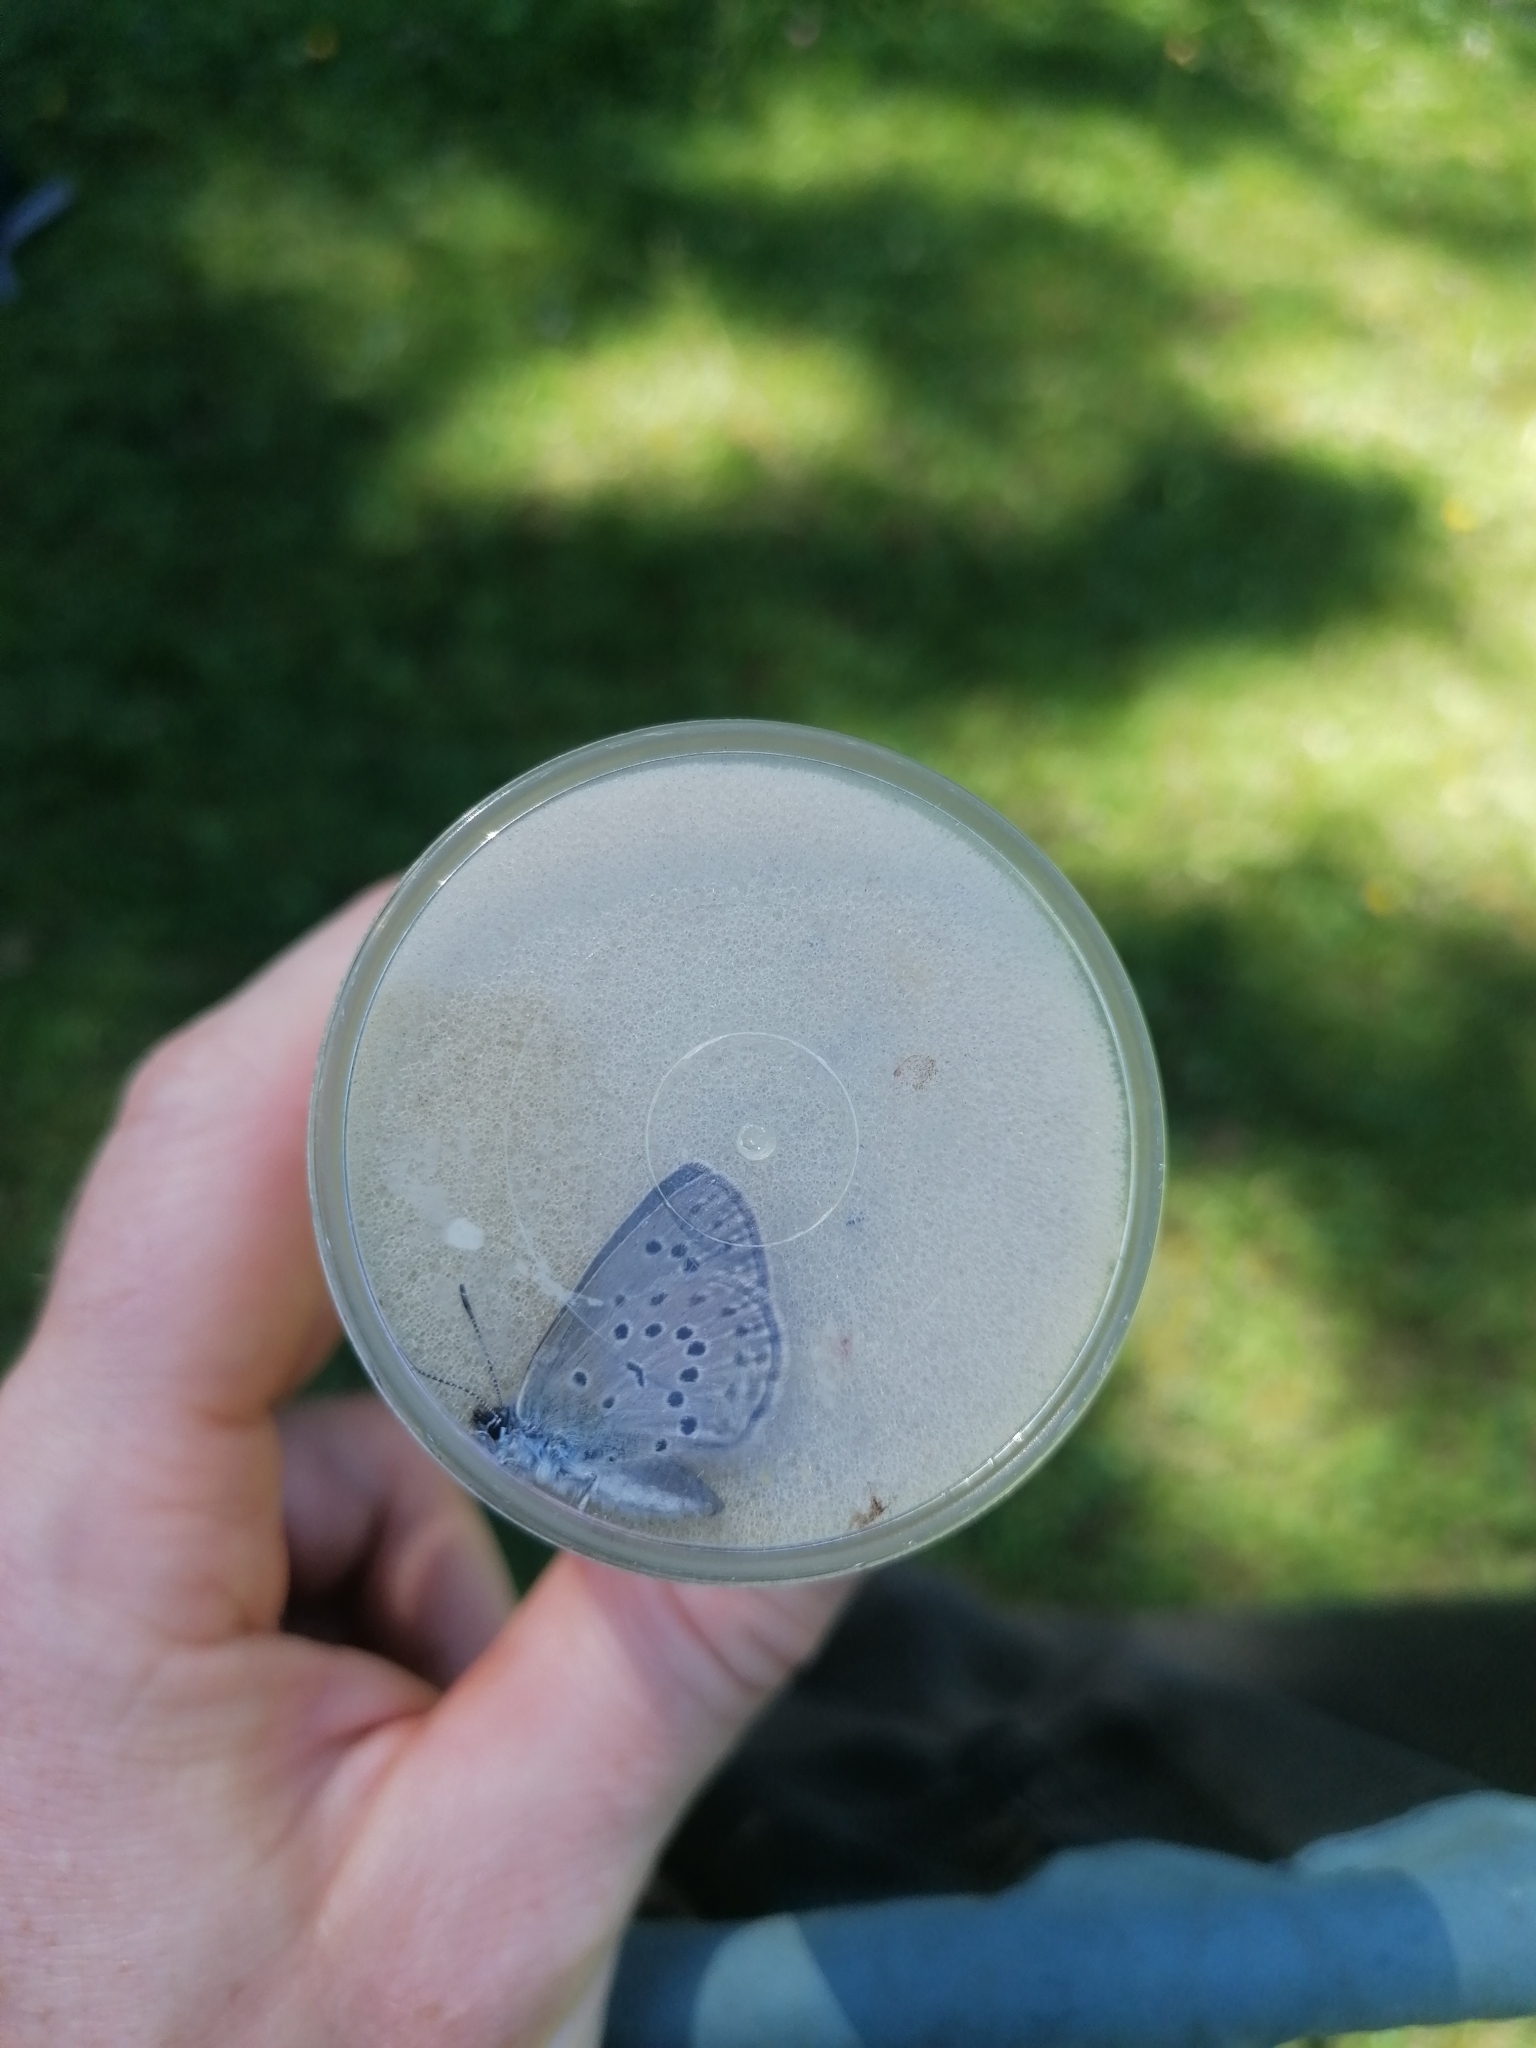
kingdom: Animalia
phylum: Arthropoda
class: Insecta
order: Lepidoptera
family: Lycaenidae
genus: Maculinea
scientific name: Maculinea alcon
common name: Alcon blue
